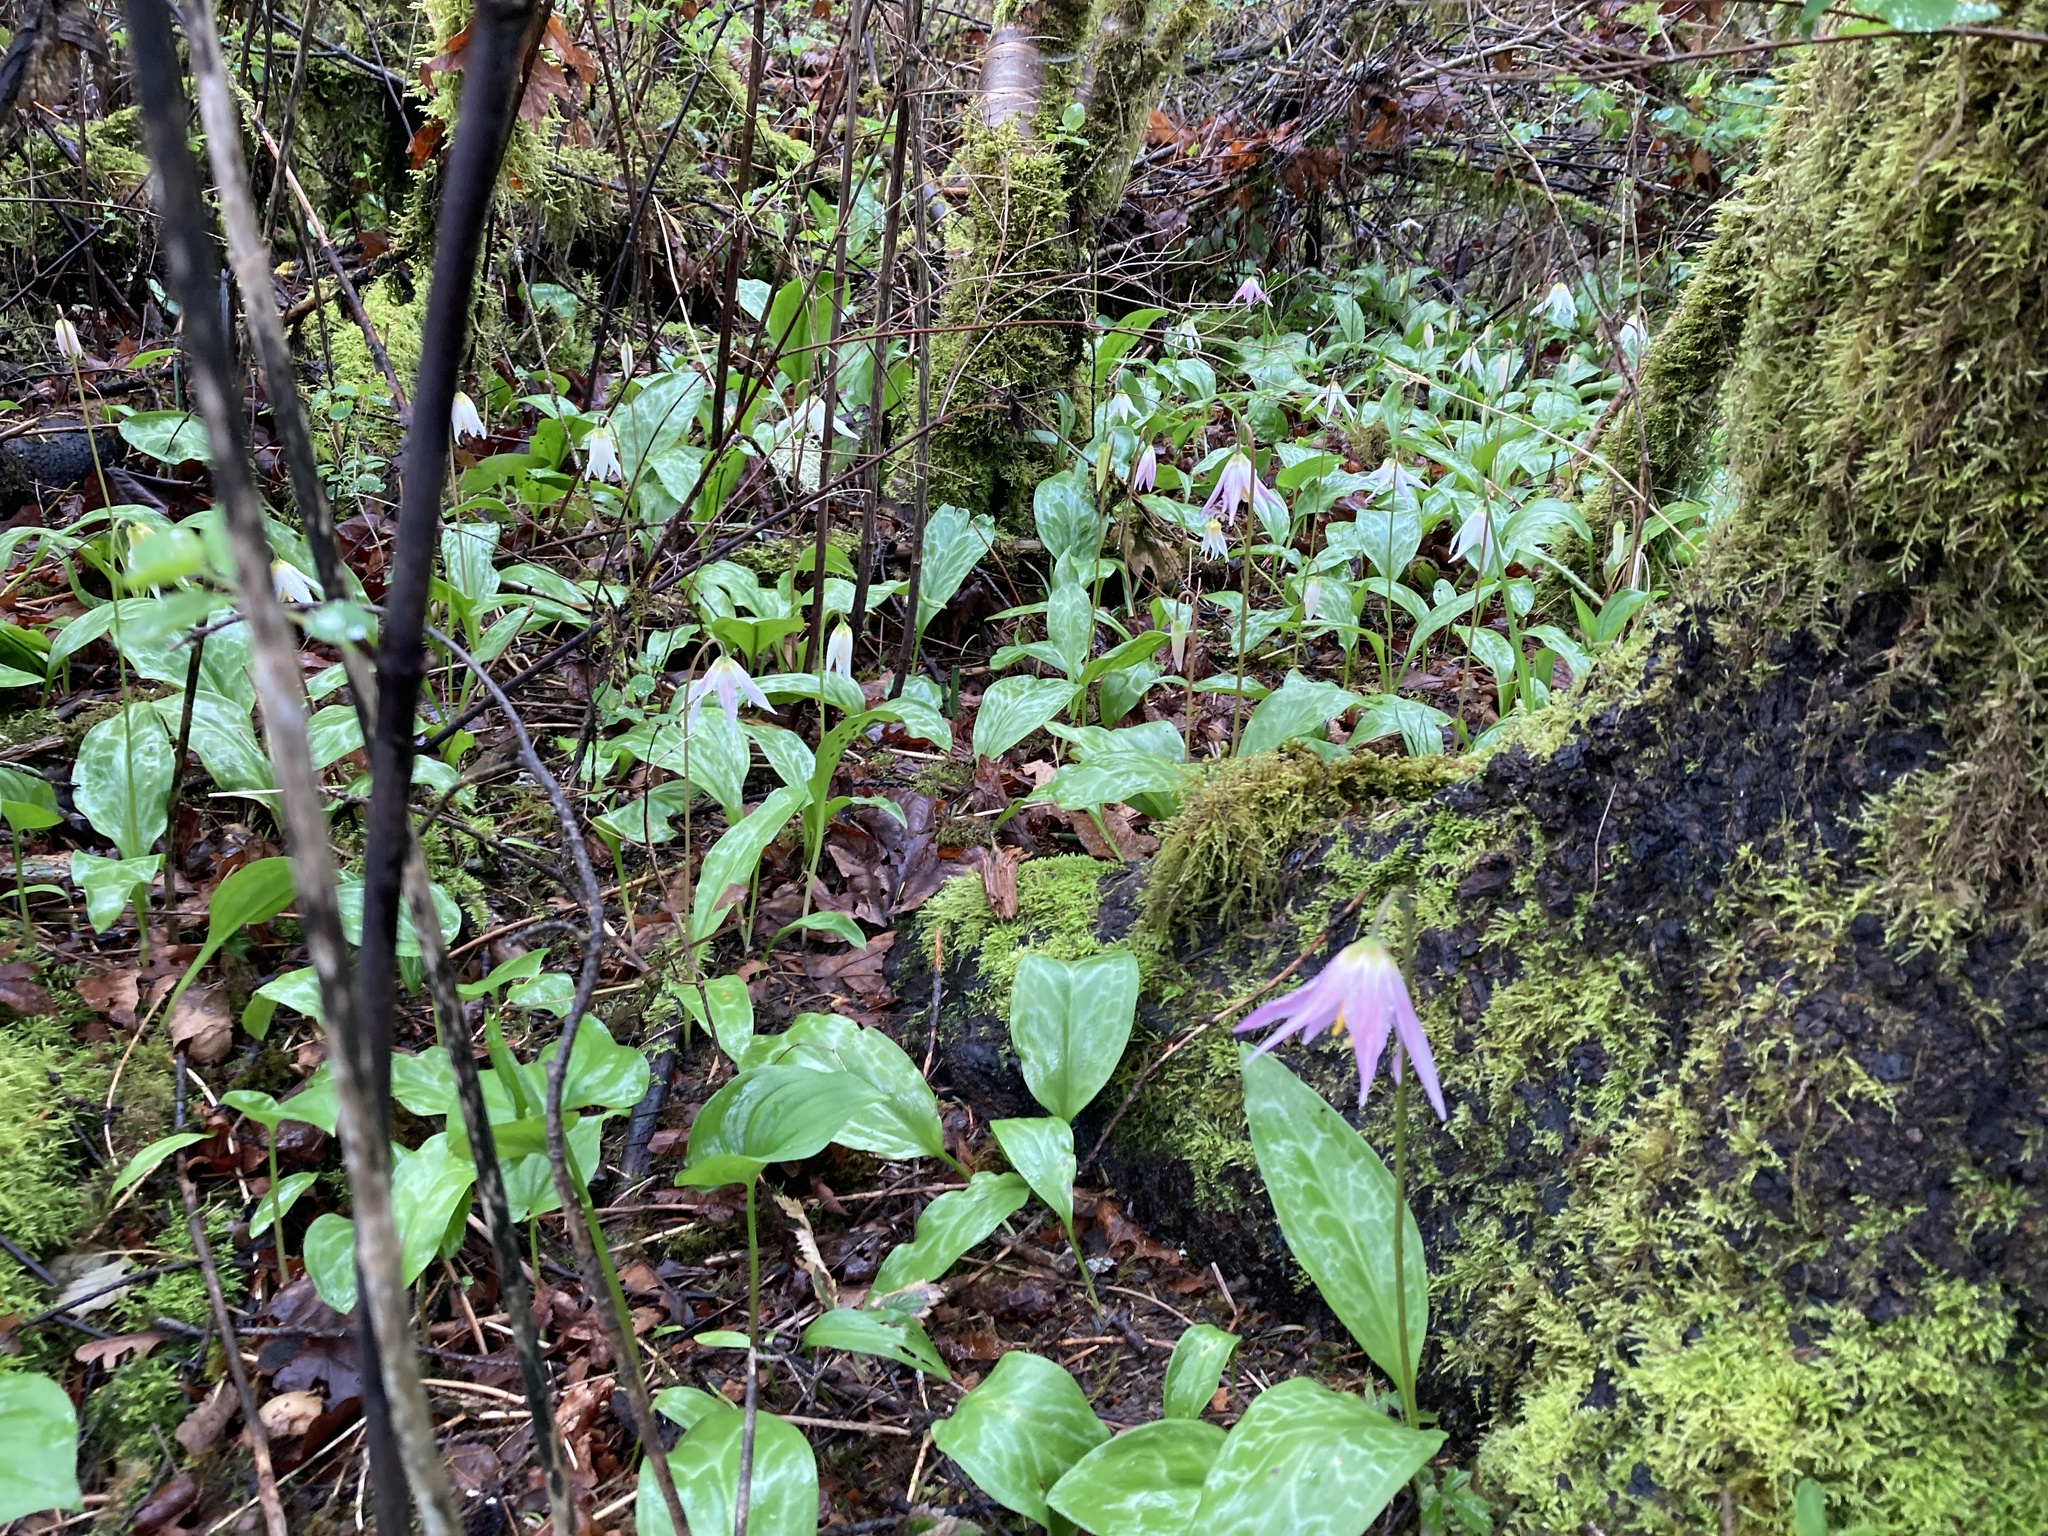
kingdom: Plantae
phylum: Tracheophyta
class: Liliopsida
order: Liliales
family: Liliaceae
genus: Erythronium
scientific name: Erythronium revolutum
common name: Pink fawn-lily
